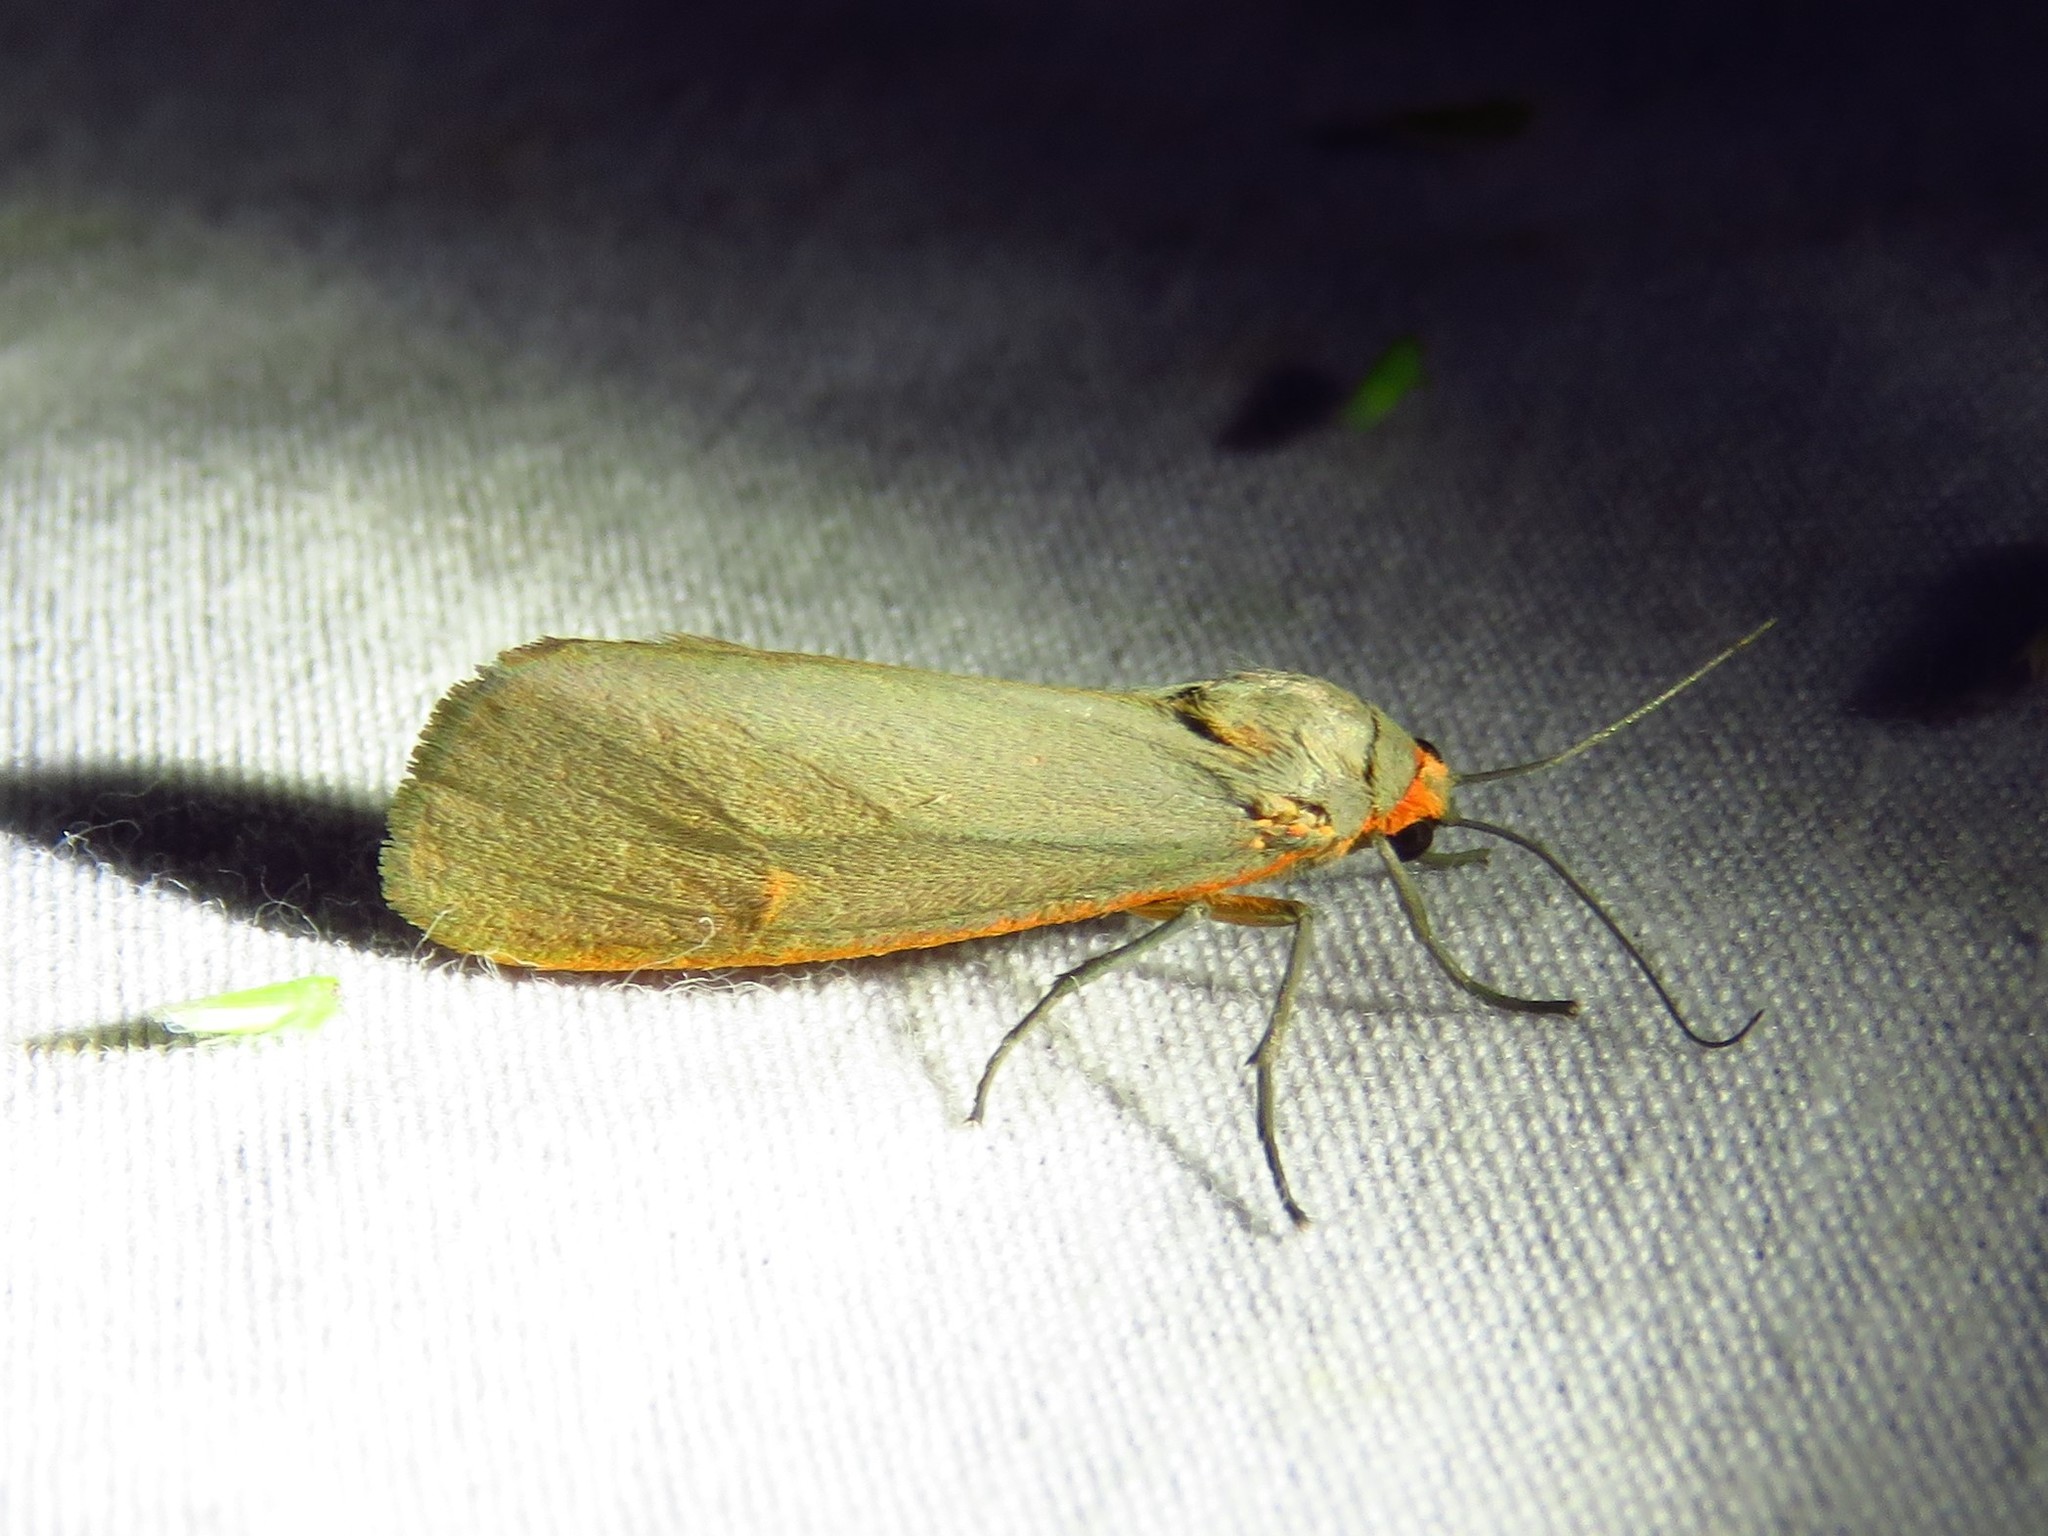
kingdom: Animalia
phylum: Arthropoda
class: Insecta
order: Lepidoptera
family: Erebidae
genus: Virbia
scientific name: Virbia costata
